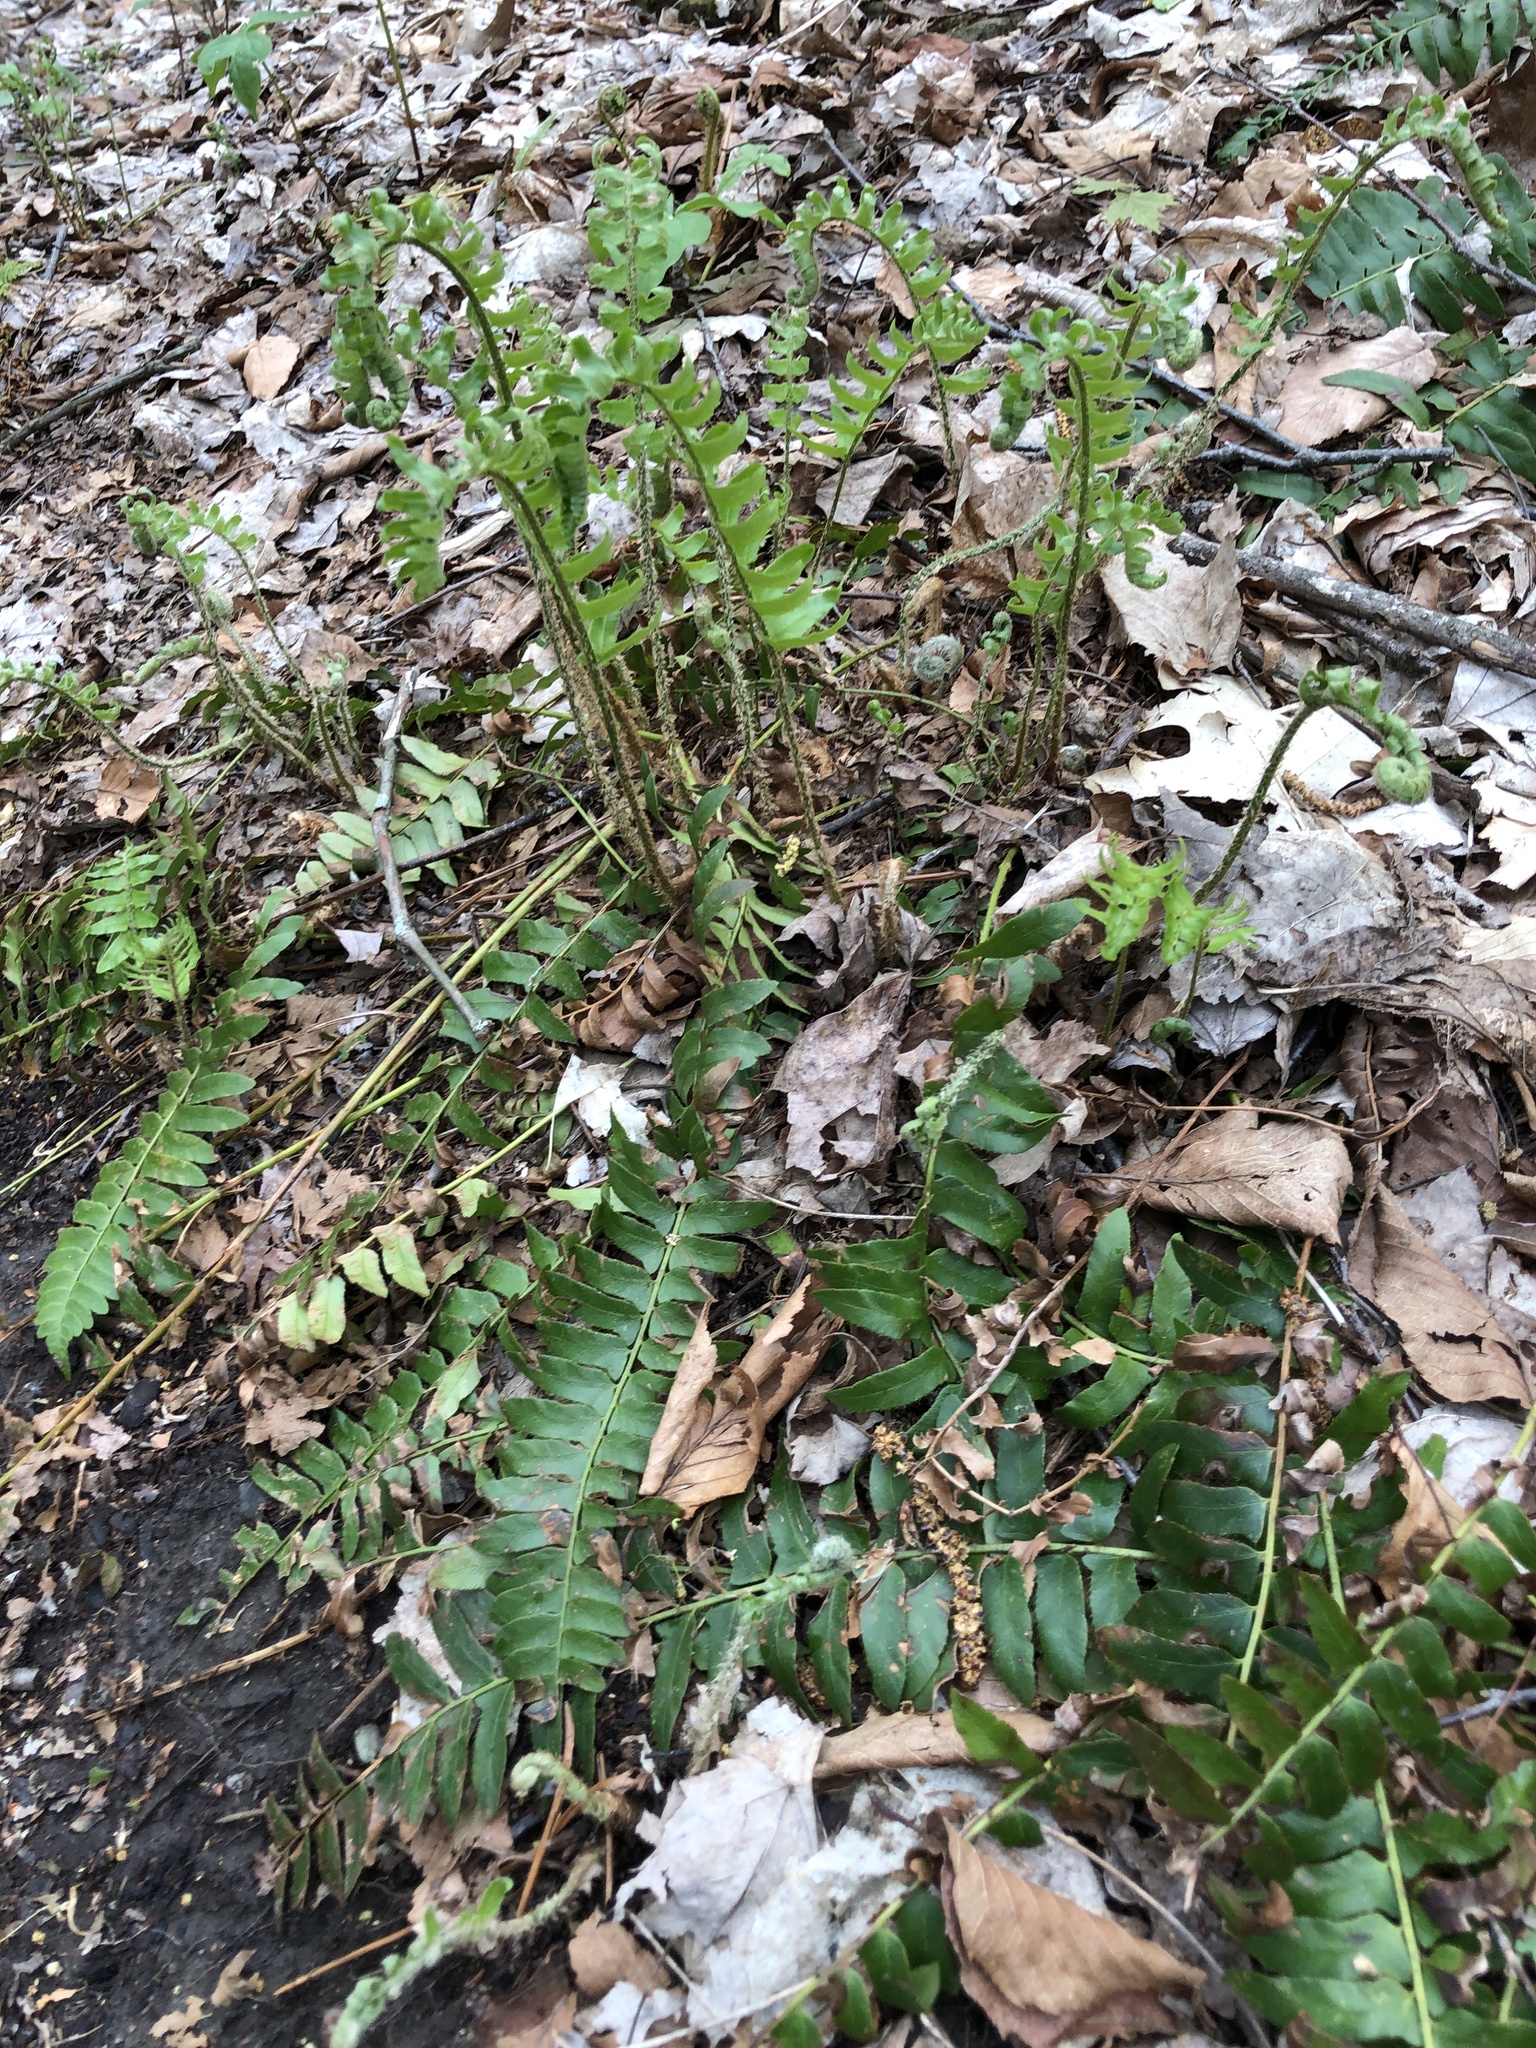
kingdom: Plantae
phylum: Tracheophyta
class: Polypodiopsida
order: Polypodiales
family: Dryopteridaceae
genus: Polystichum
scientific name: Polystichum acrostichoides
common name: Christmas fern
